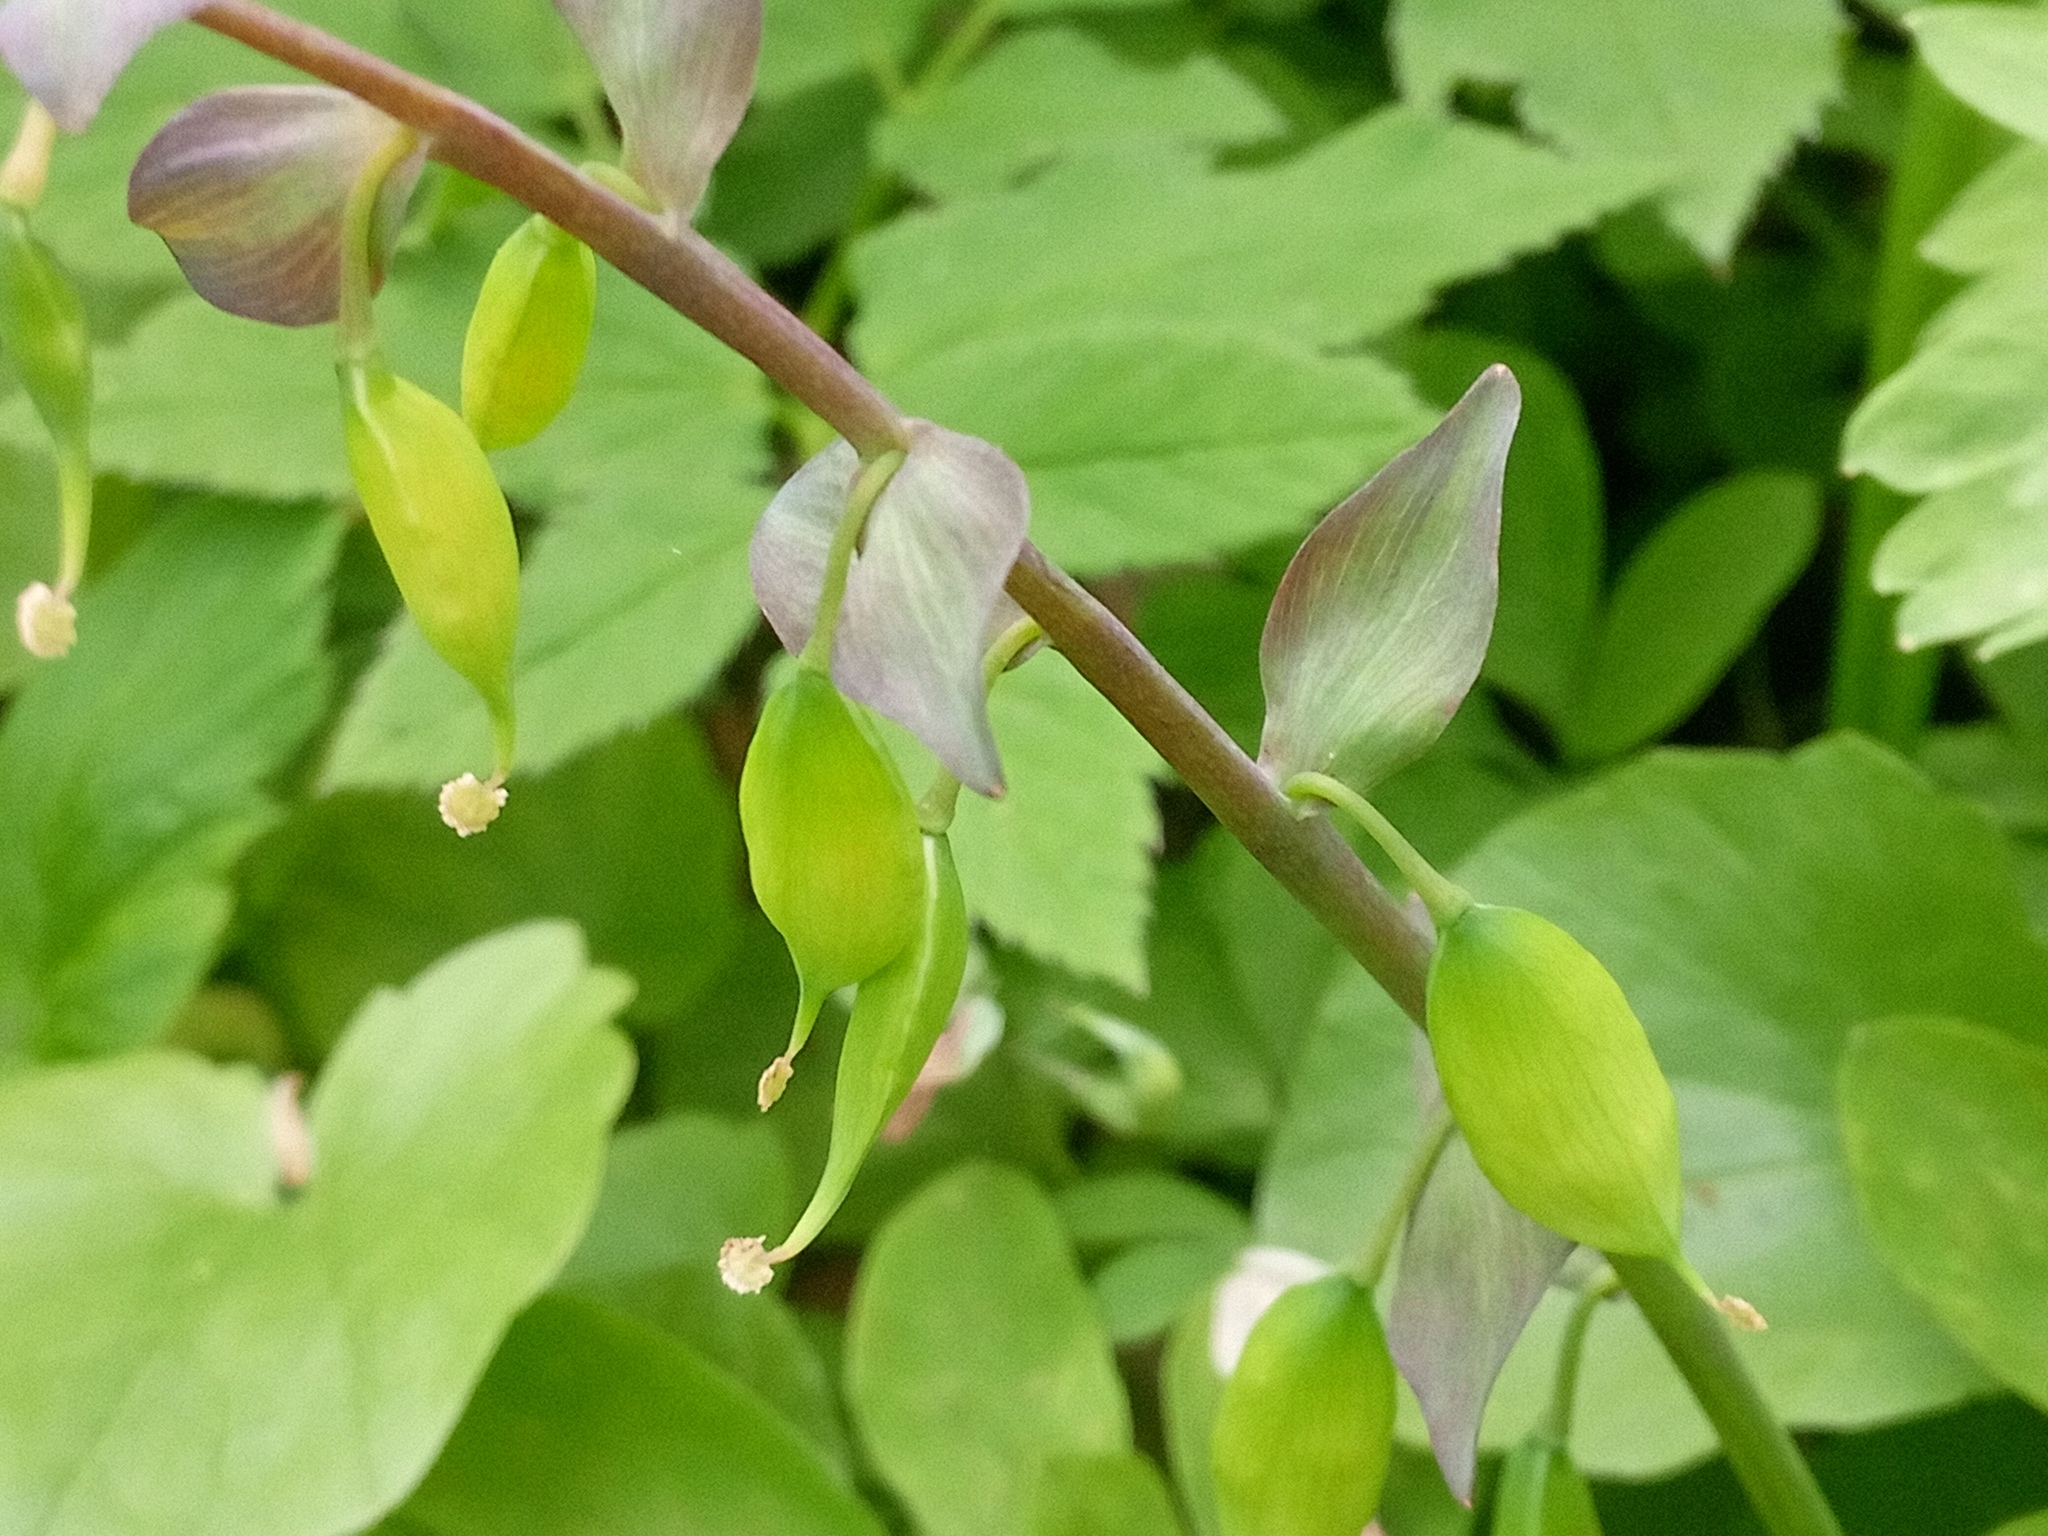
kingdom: Plantae
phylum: Tracheophyta
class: Magnoliopsida
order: Ranunculales
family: Papaveraceae
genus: Corydalis
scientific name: Corydalis cava
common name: Hollowroot
